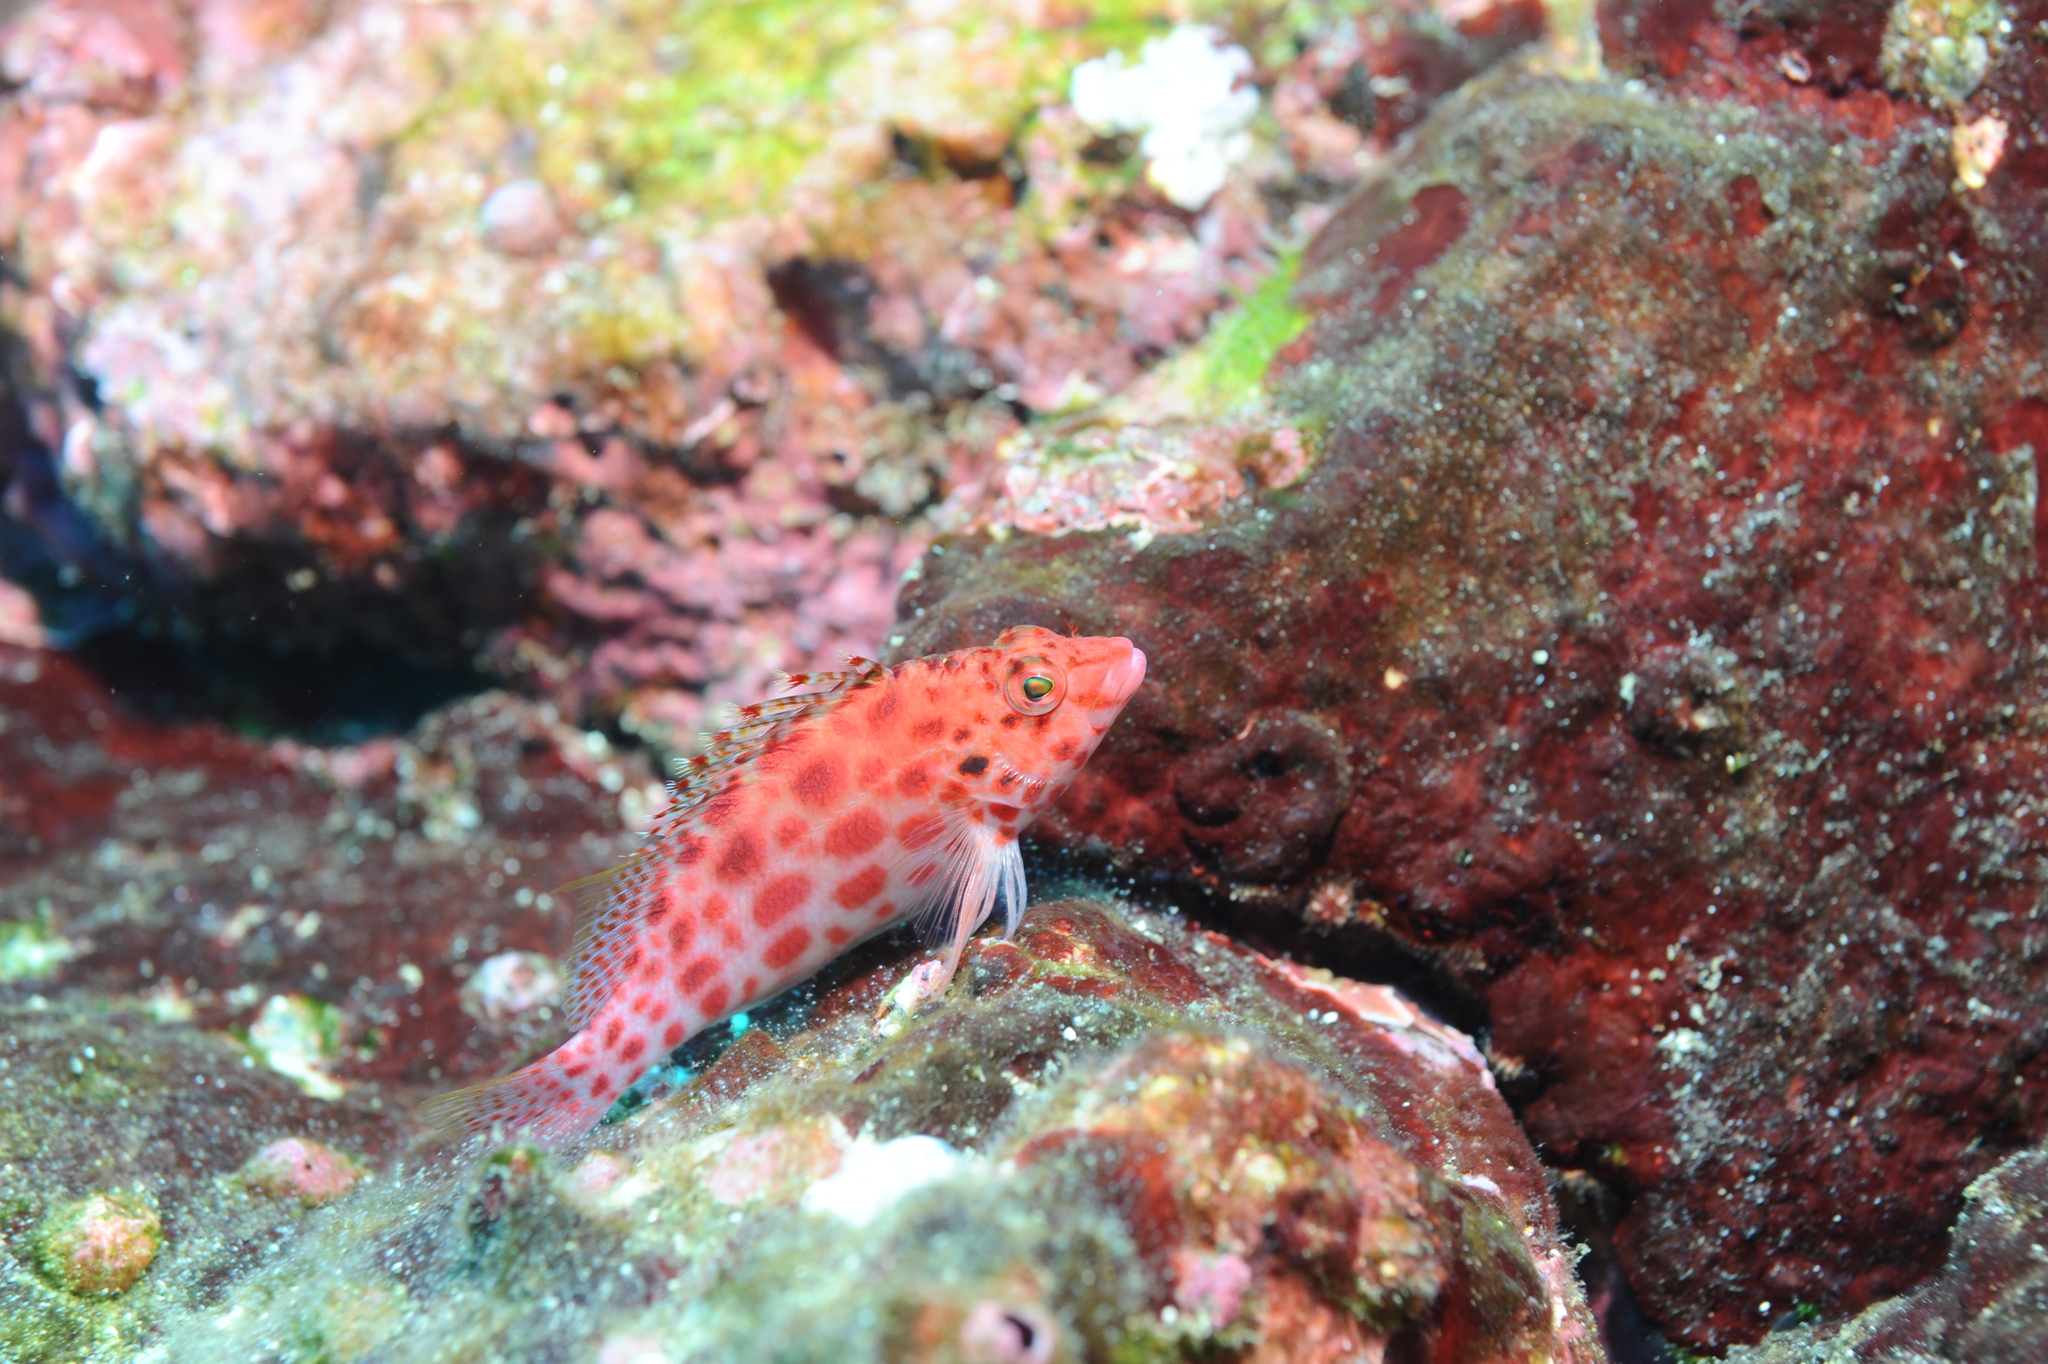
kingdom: Animalia
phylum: Chordata
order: Perciformes
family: Cirrhitidae
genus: Cirrhitichthys
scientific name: Cirrhitichthys oxycephalus
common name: Spotted hawkfish
